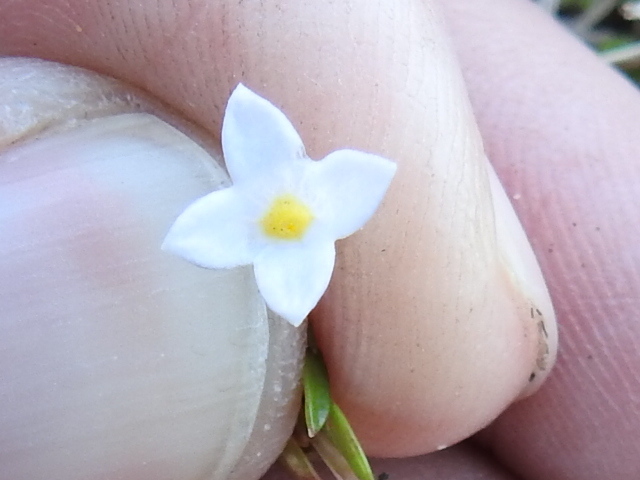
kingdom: Plantae
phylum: Tracheophyta
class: Magnoliopsida
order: Gentianales
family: Rubiaceae
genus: Houstonia
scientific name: Houstonia rosea
